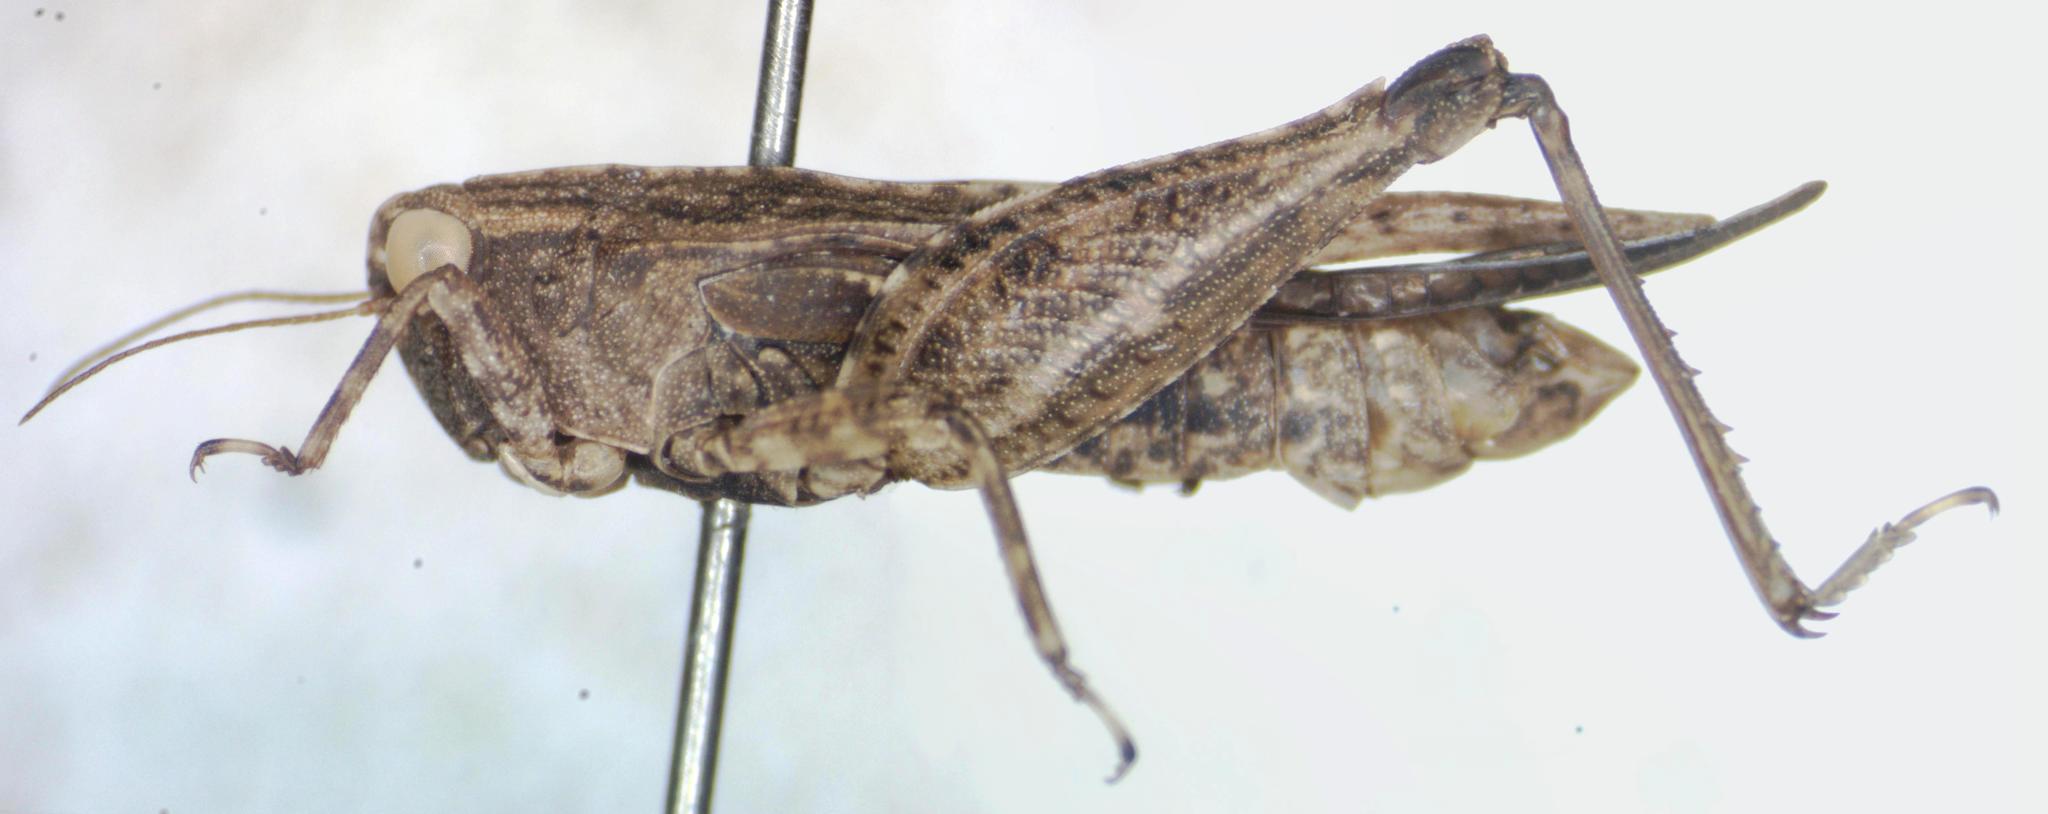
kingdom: Animalia
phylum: Arthropoda
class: Insecta
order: Orthoptera
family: Tetrigidae
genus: Tettigidea
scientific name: Tettigidea laterale
